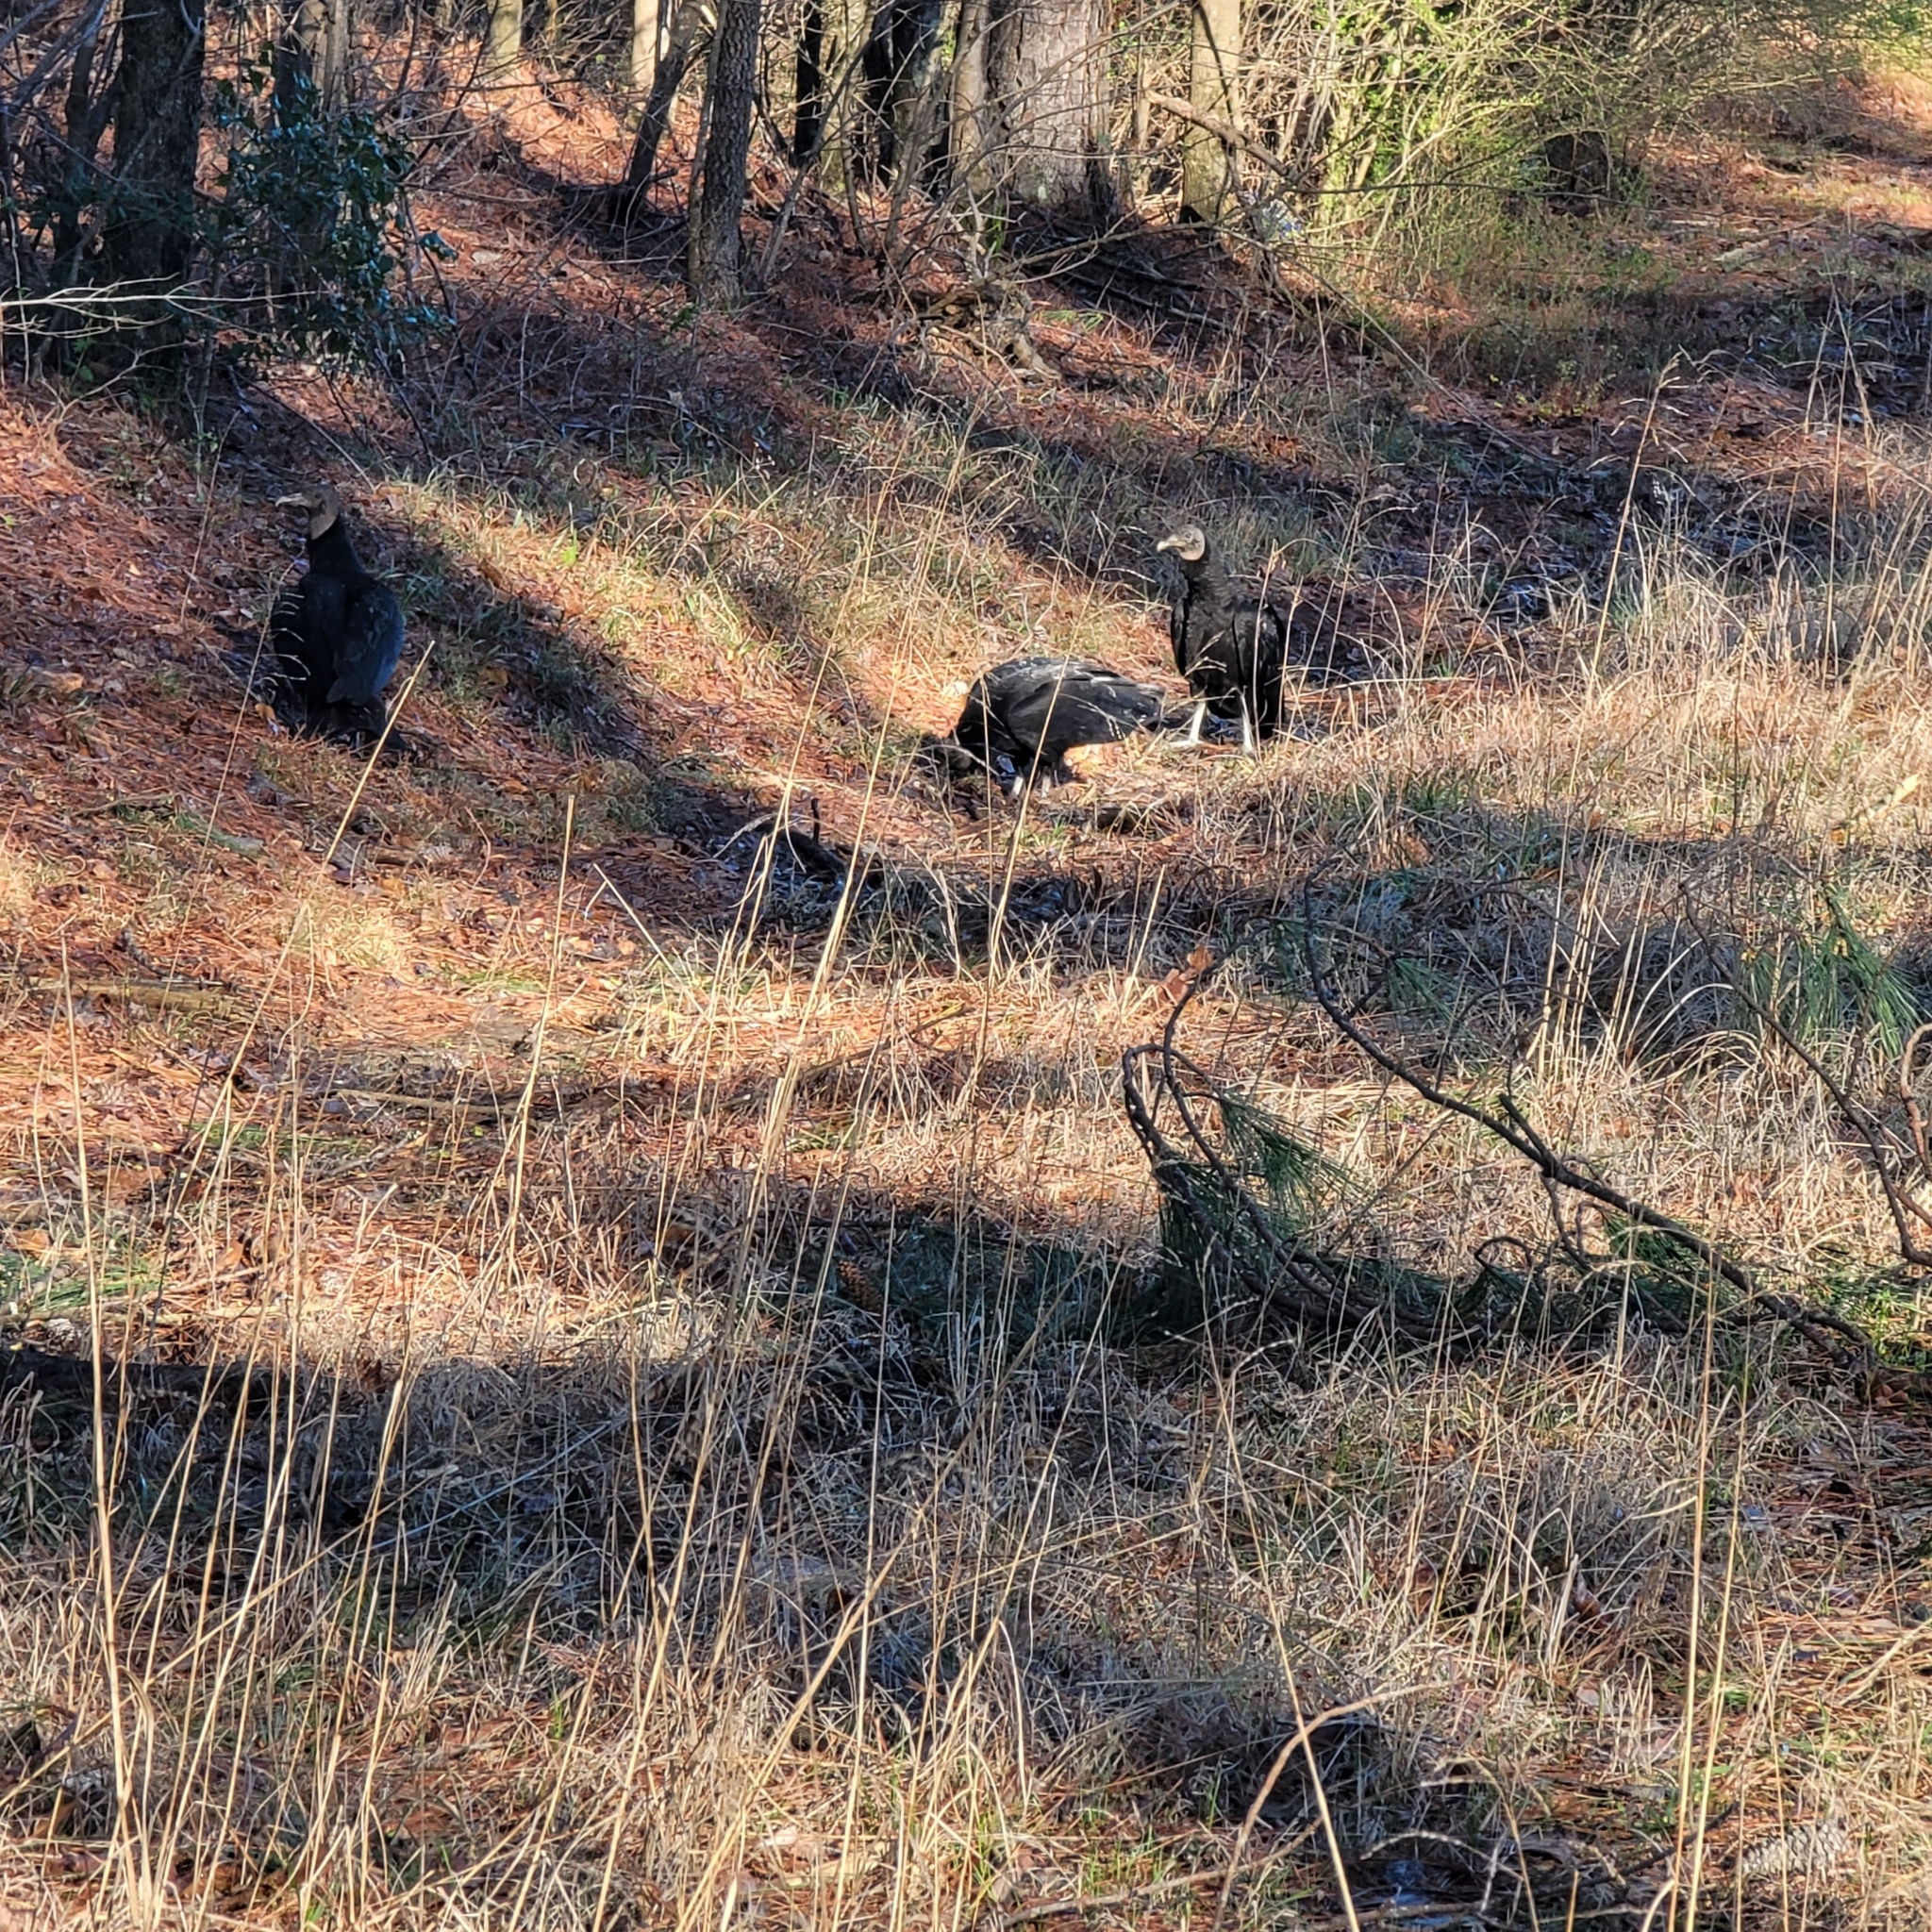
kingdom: Animalia
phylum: Chordata
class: Aves
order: Accipitriformes
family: Cathartidae
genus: Coragyps
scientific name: Coragyps atratus
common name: Black vulture
